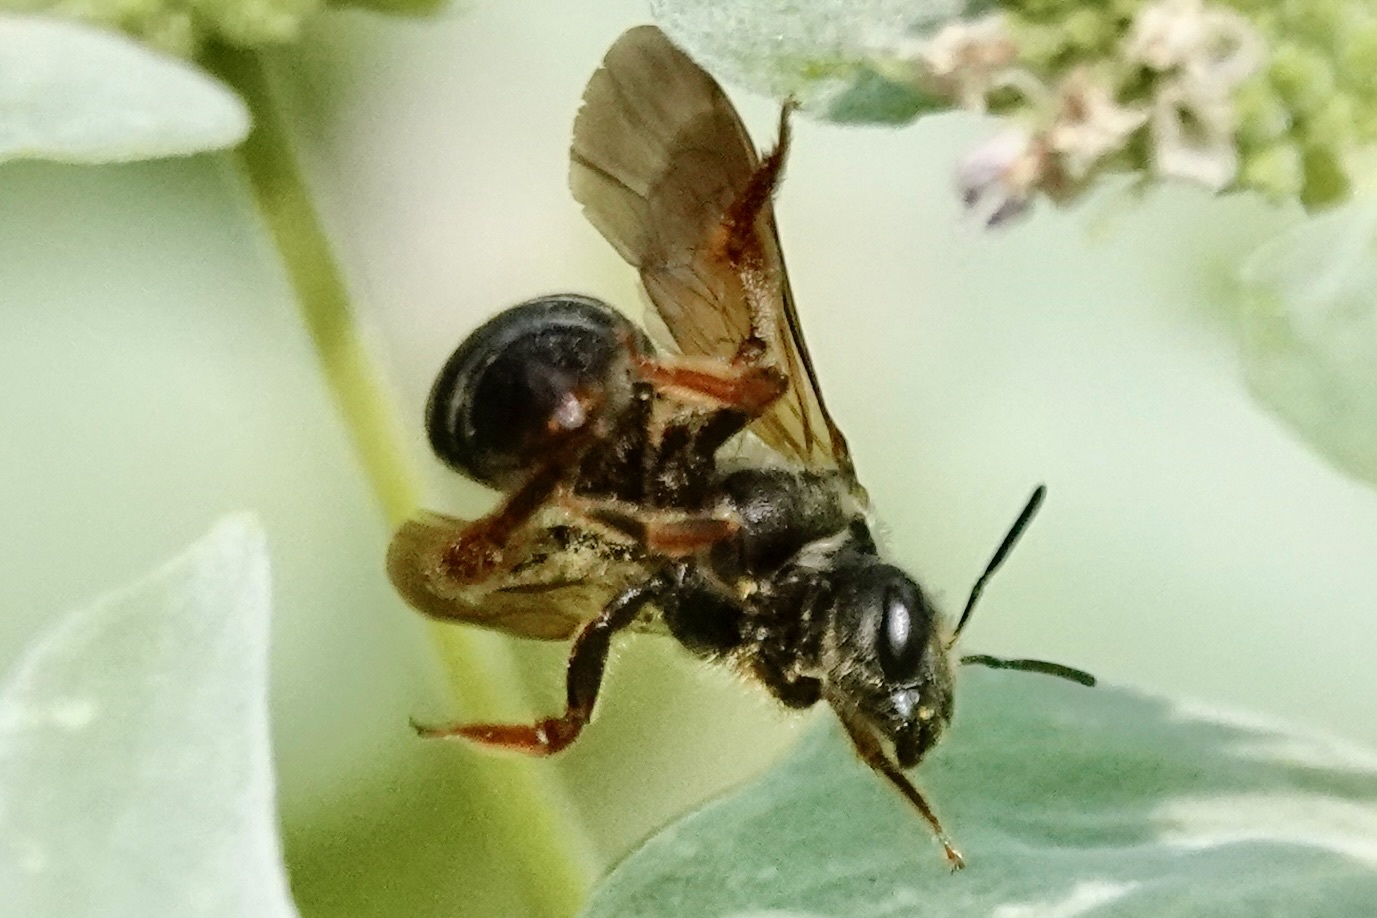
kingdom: Animalia
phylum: Arthropoda
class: Insecta
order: Hymenoptera
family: Halictidae
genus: Halictus
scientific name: Halictus parallelus
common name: Parallel-striped sweat bee
